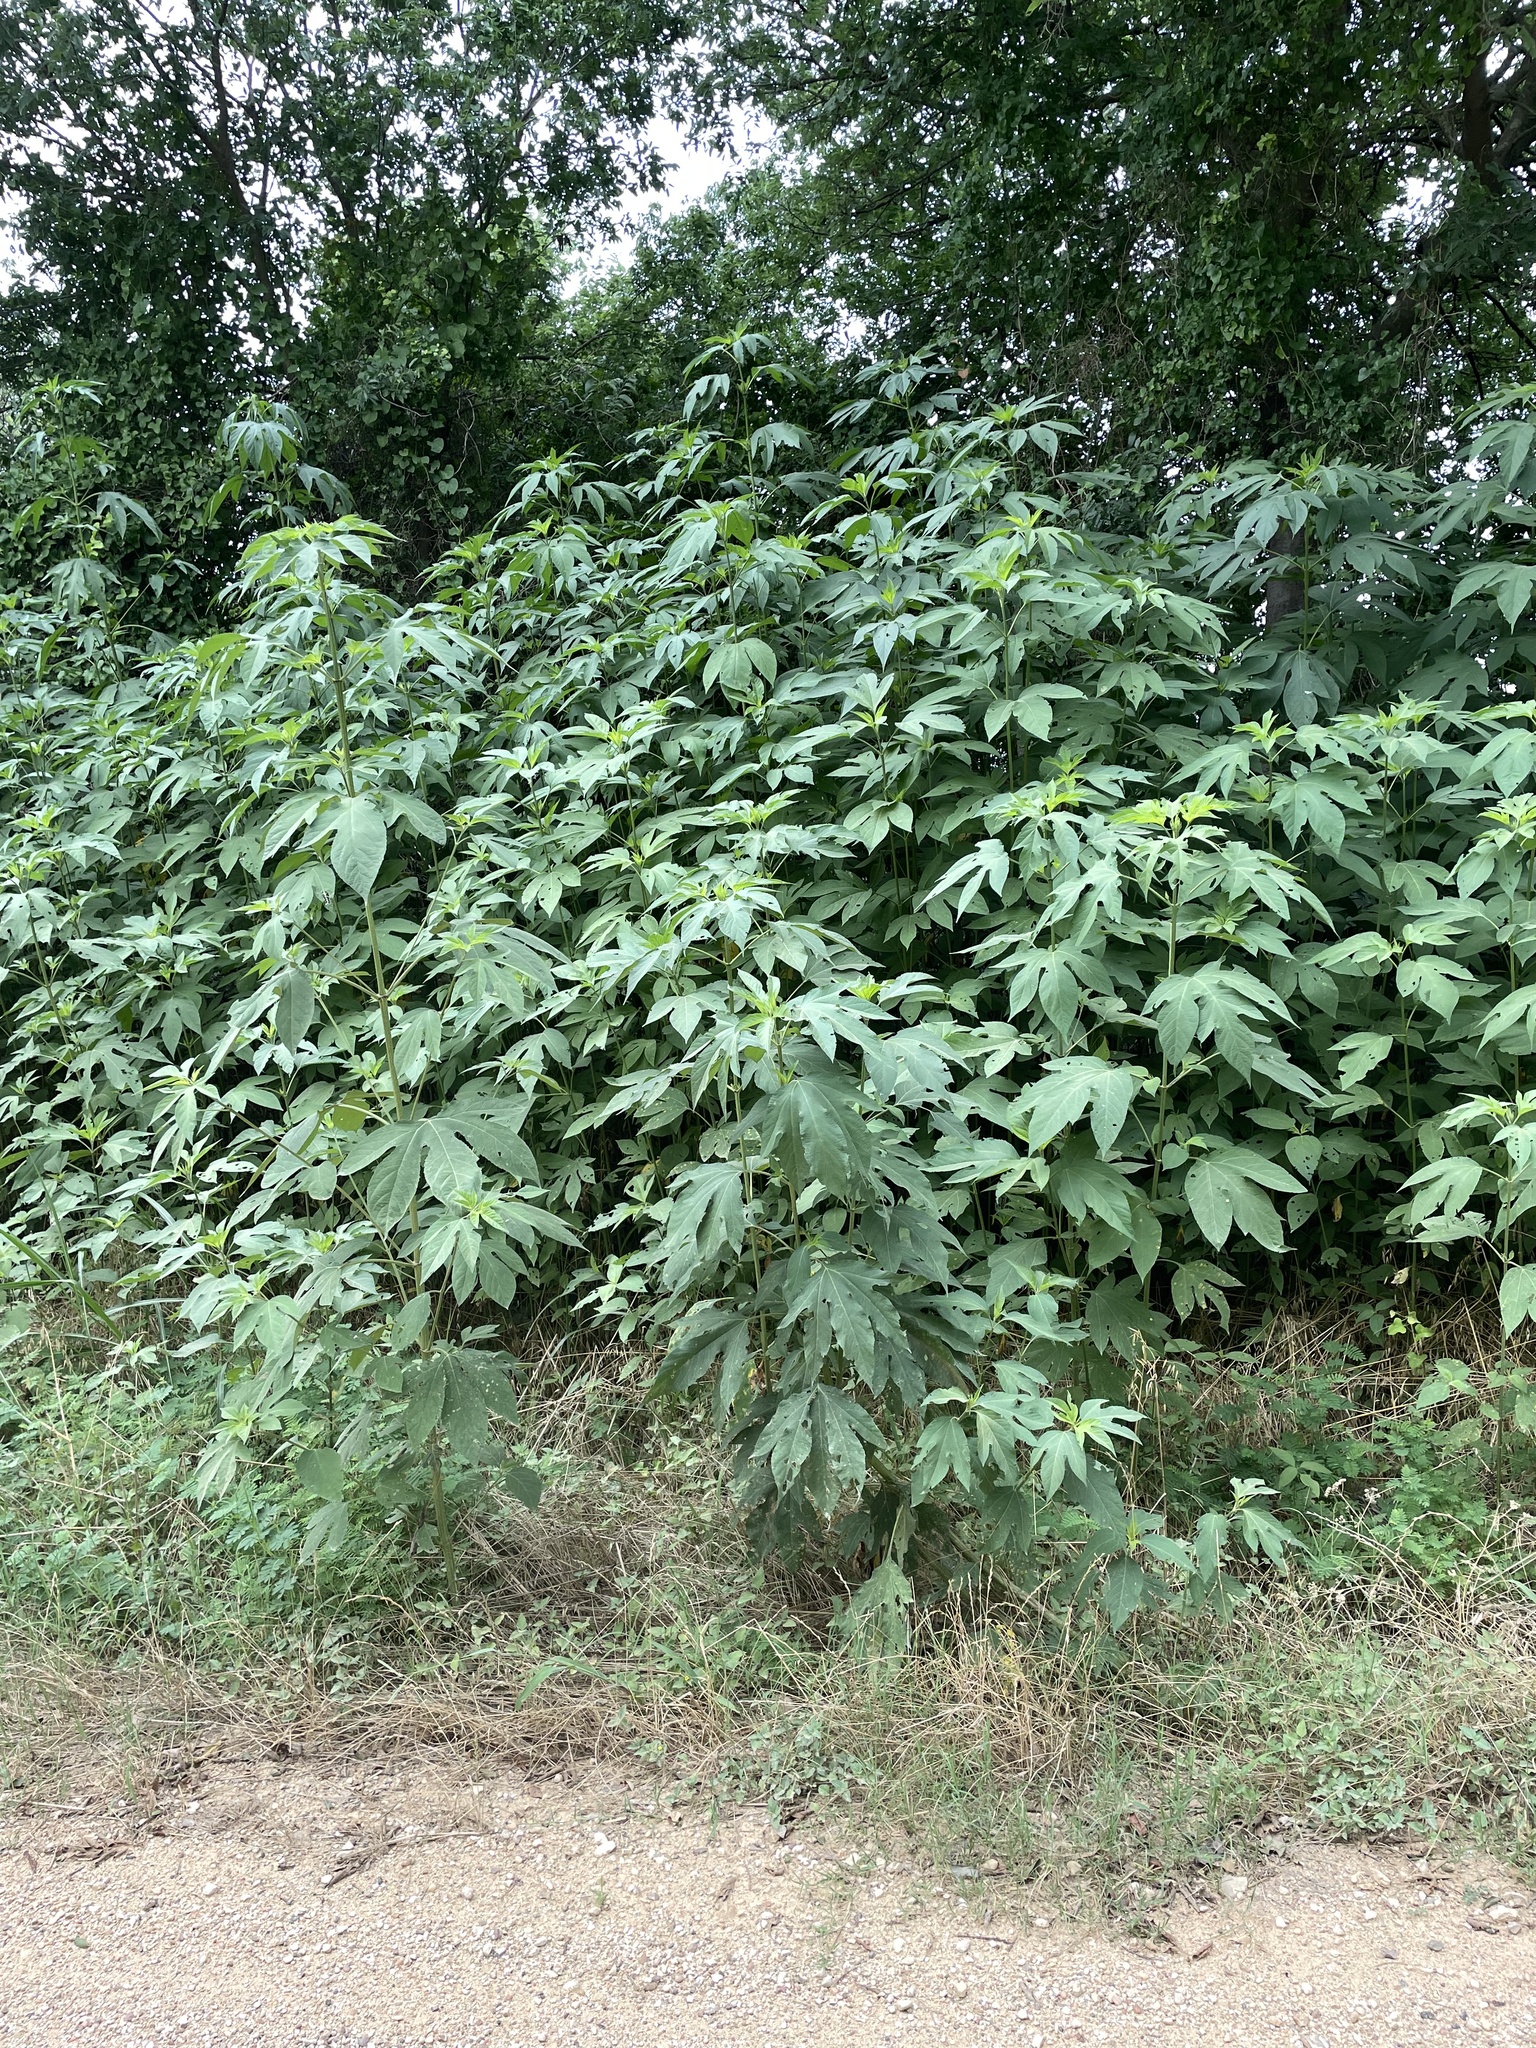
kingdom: Plantae
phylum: Tracheophyta
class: Magnoliopsida
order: Asterales
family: Asteraceae
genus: Ambrosia
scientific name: Ambrosia trifida
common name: Giant ragweed
